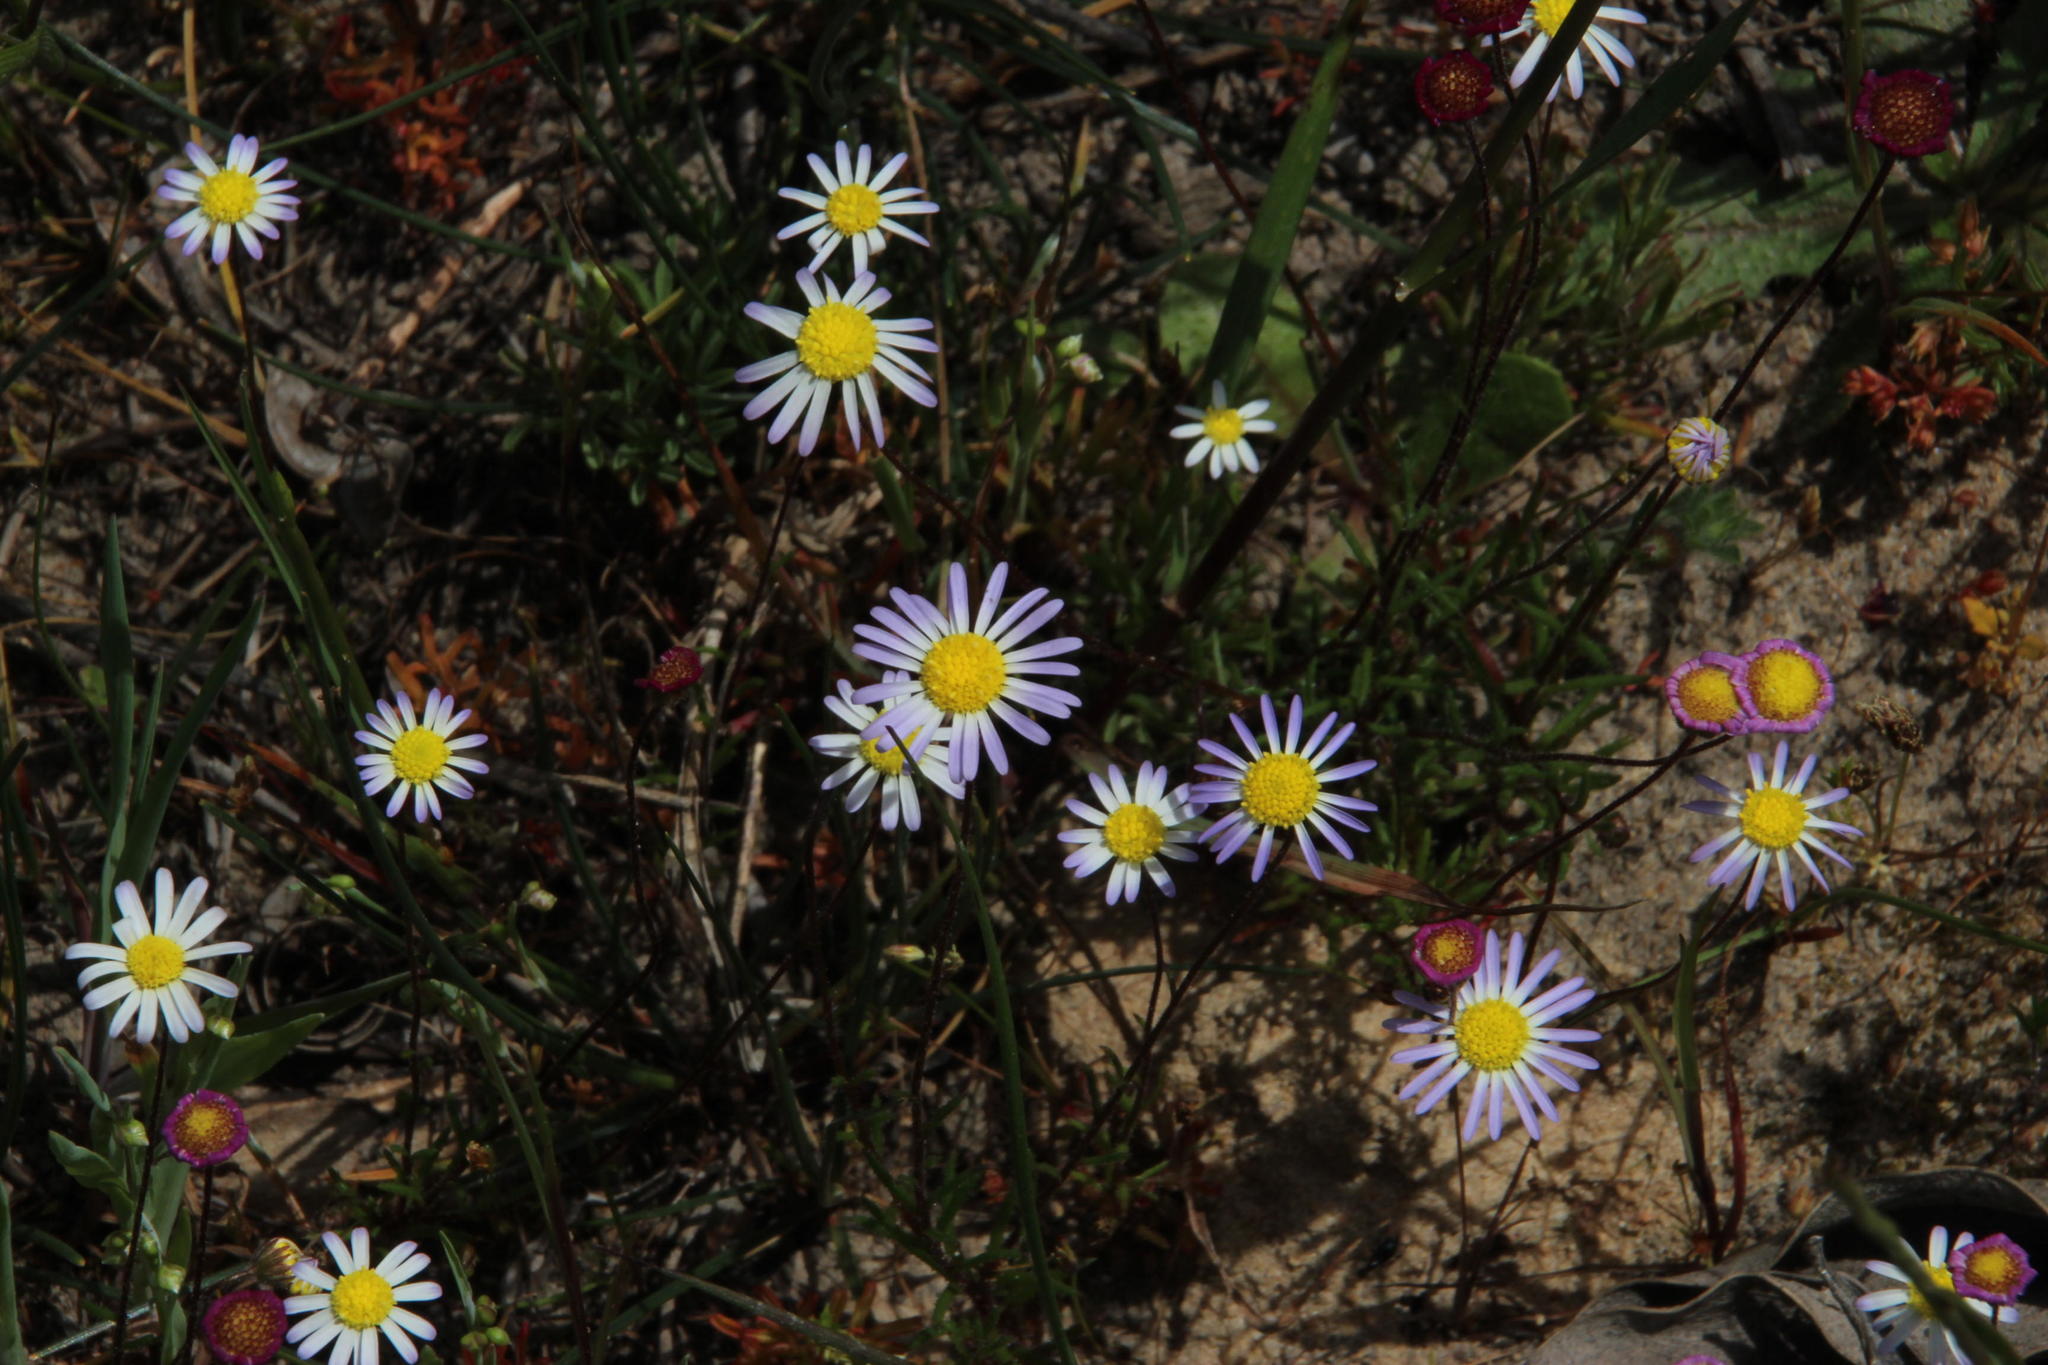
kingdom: Plantae
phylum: Tracheophyta
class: Magnoliopsida
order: Asterales
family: Asteraceae
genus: Felicia
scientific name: Felicia tenella
